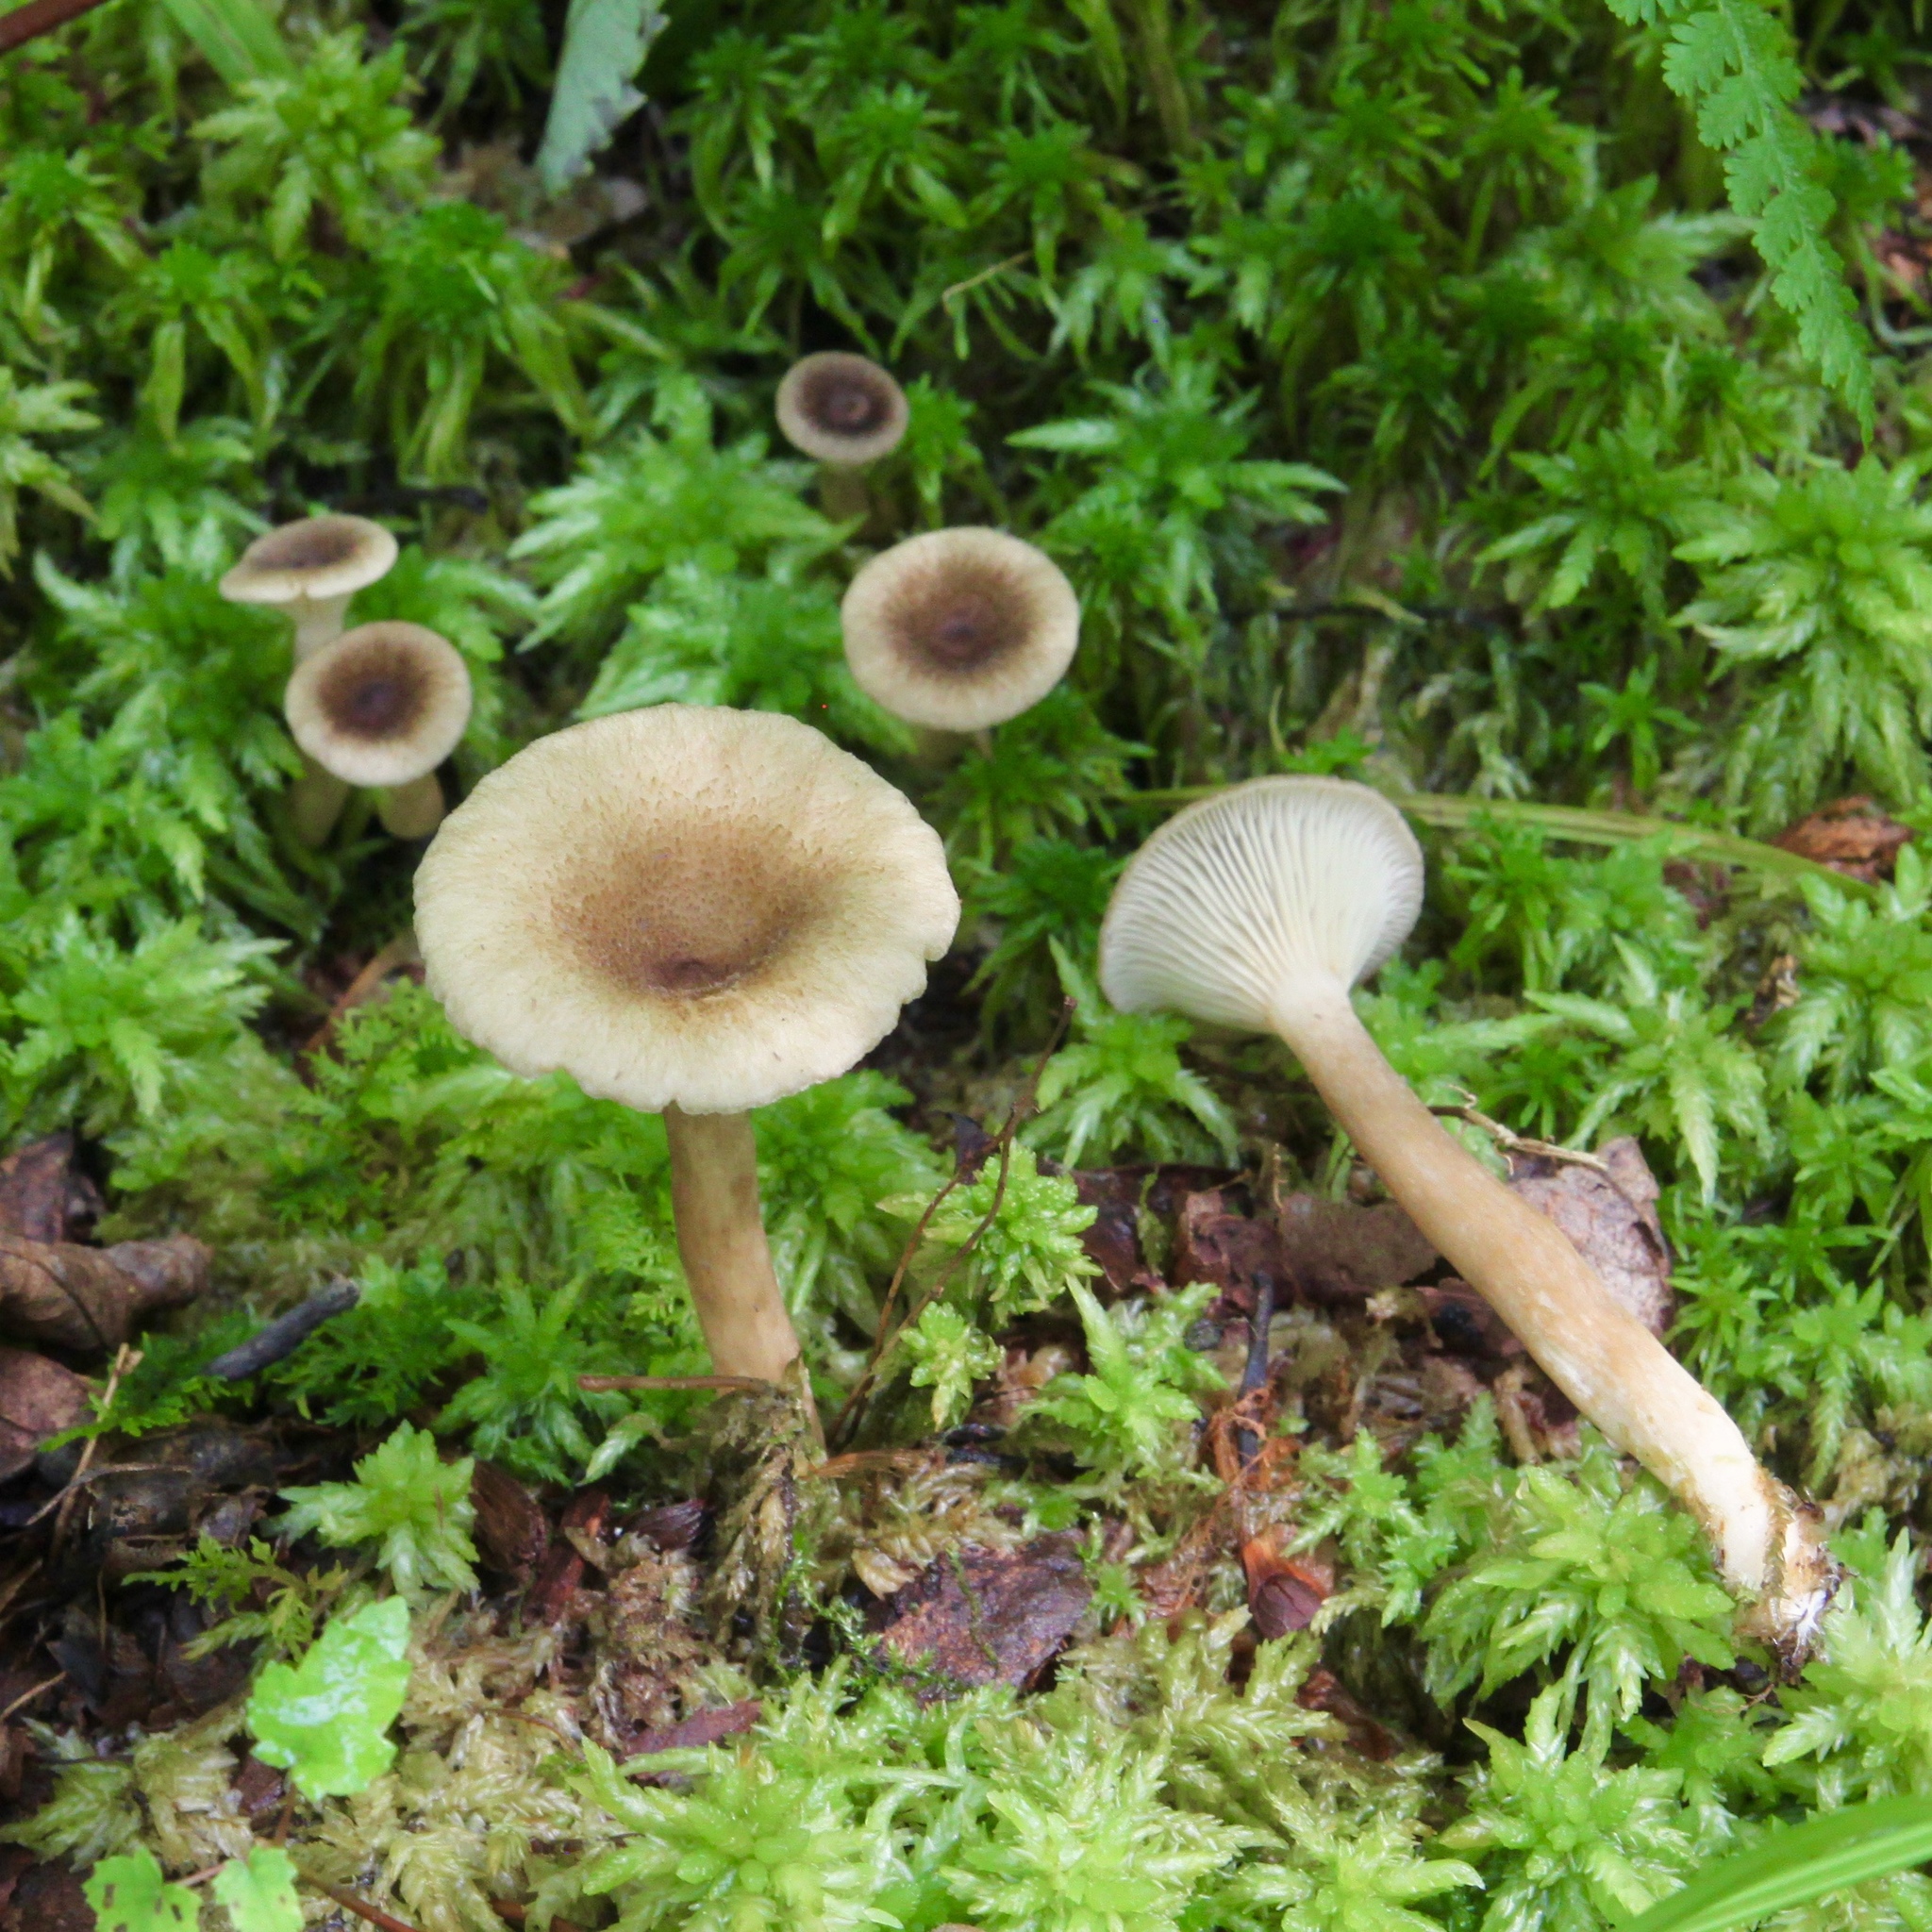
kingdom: Fungi
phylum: Basidiomycota
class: Agaricomycetes
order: Russulales
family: Russulaceae
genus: Lactarius
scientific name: Lactarius griseus
